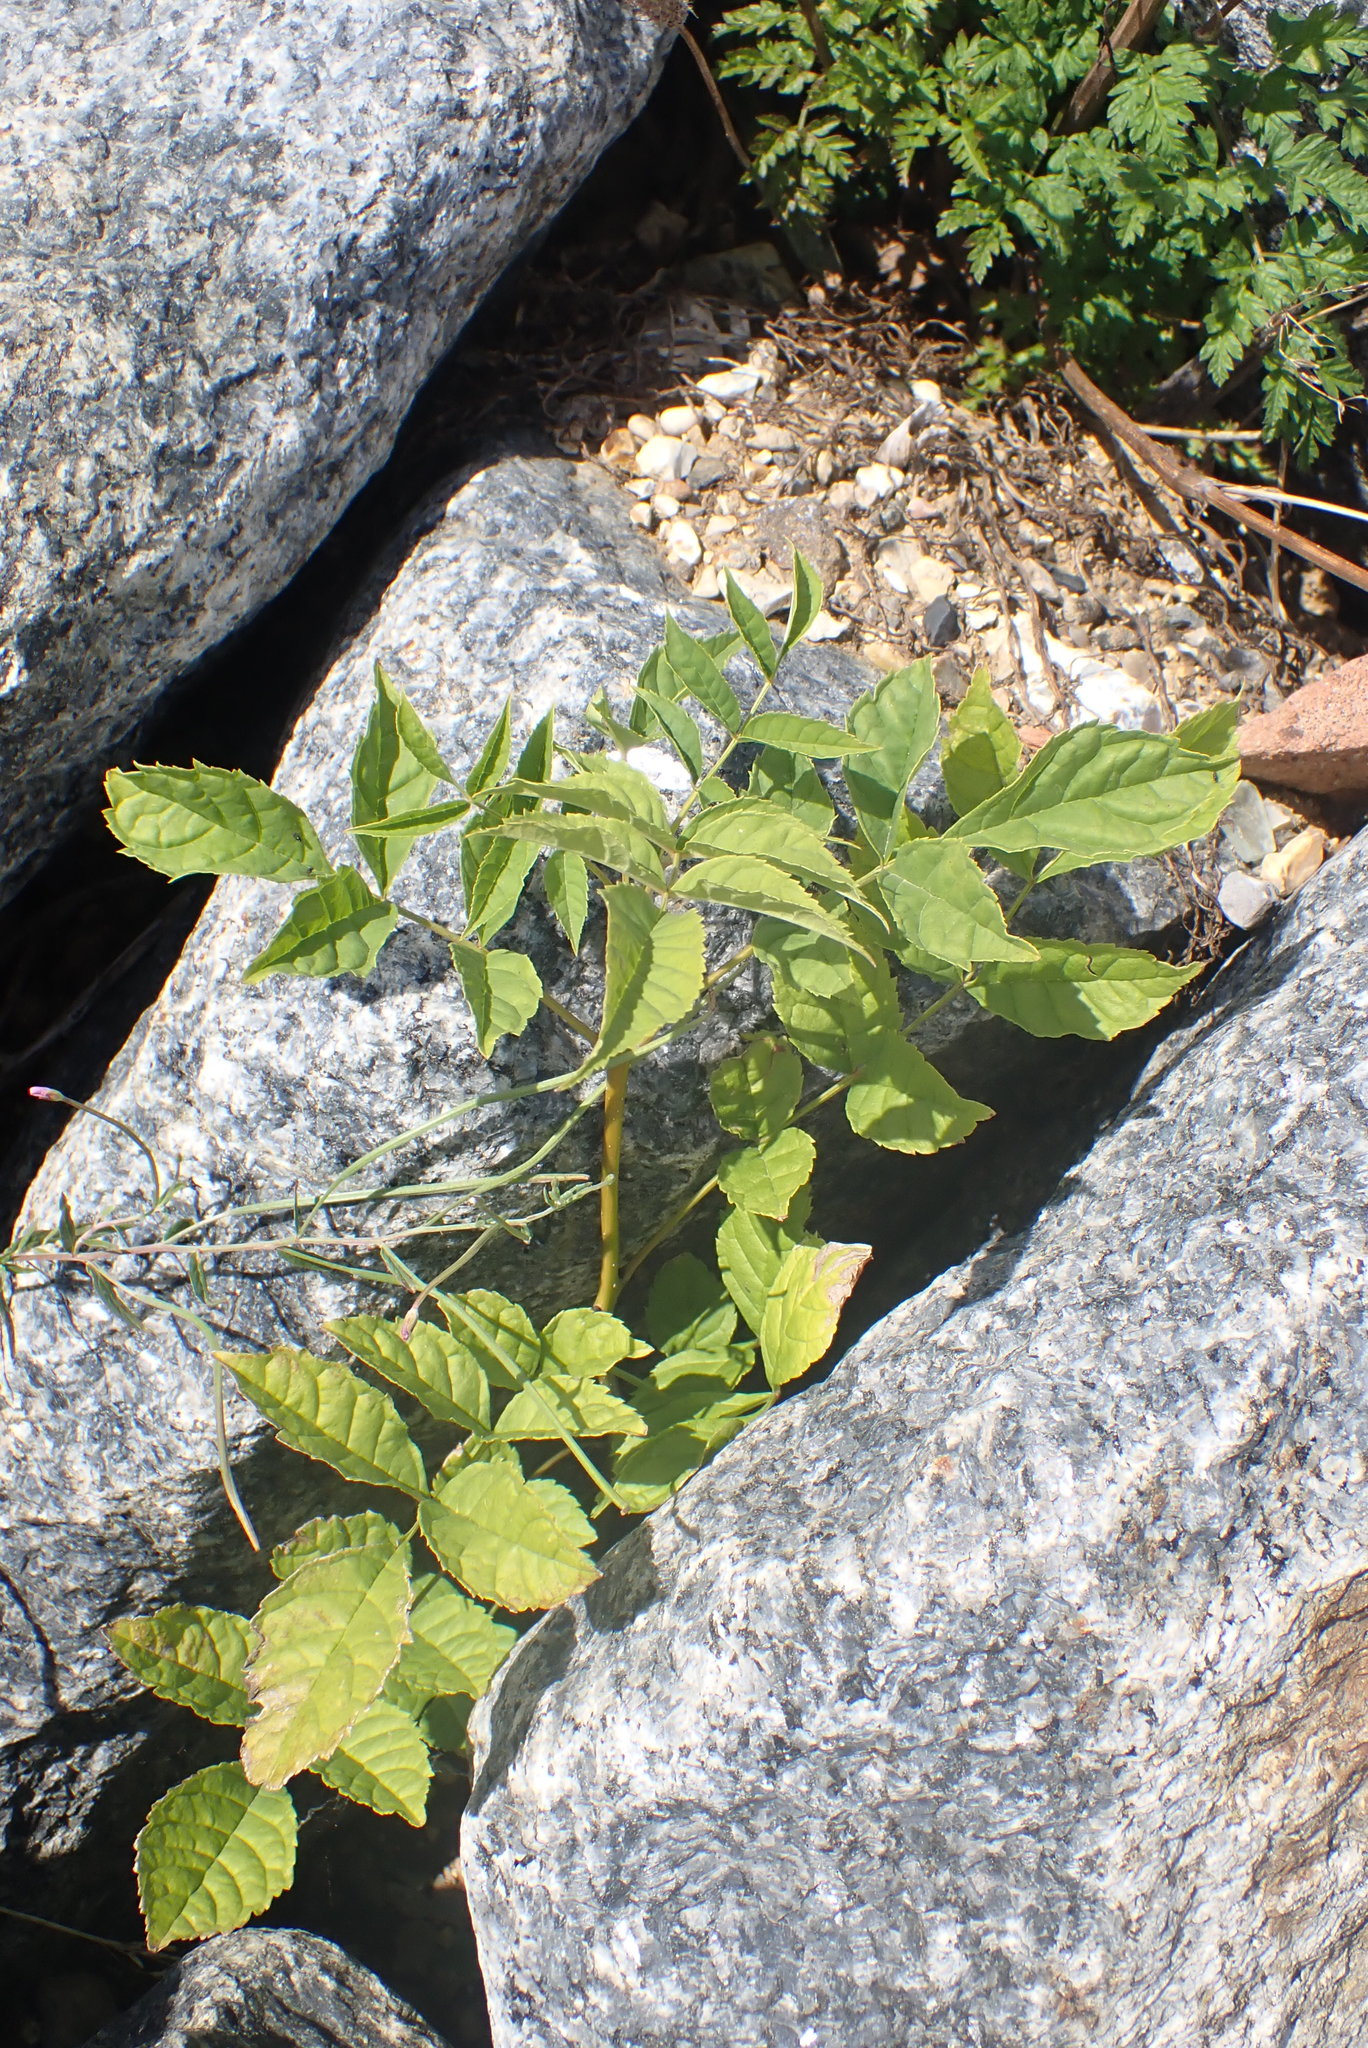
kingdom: Plantae
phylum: Tracheophyta
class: Magnoliopsida
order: Lamiales
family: Oleaceae
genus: Fraxinus
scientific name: Fraxinus excelsior
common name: European ash
